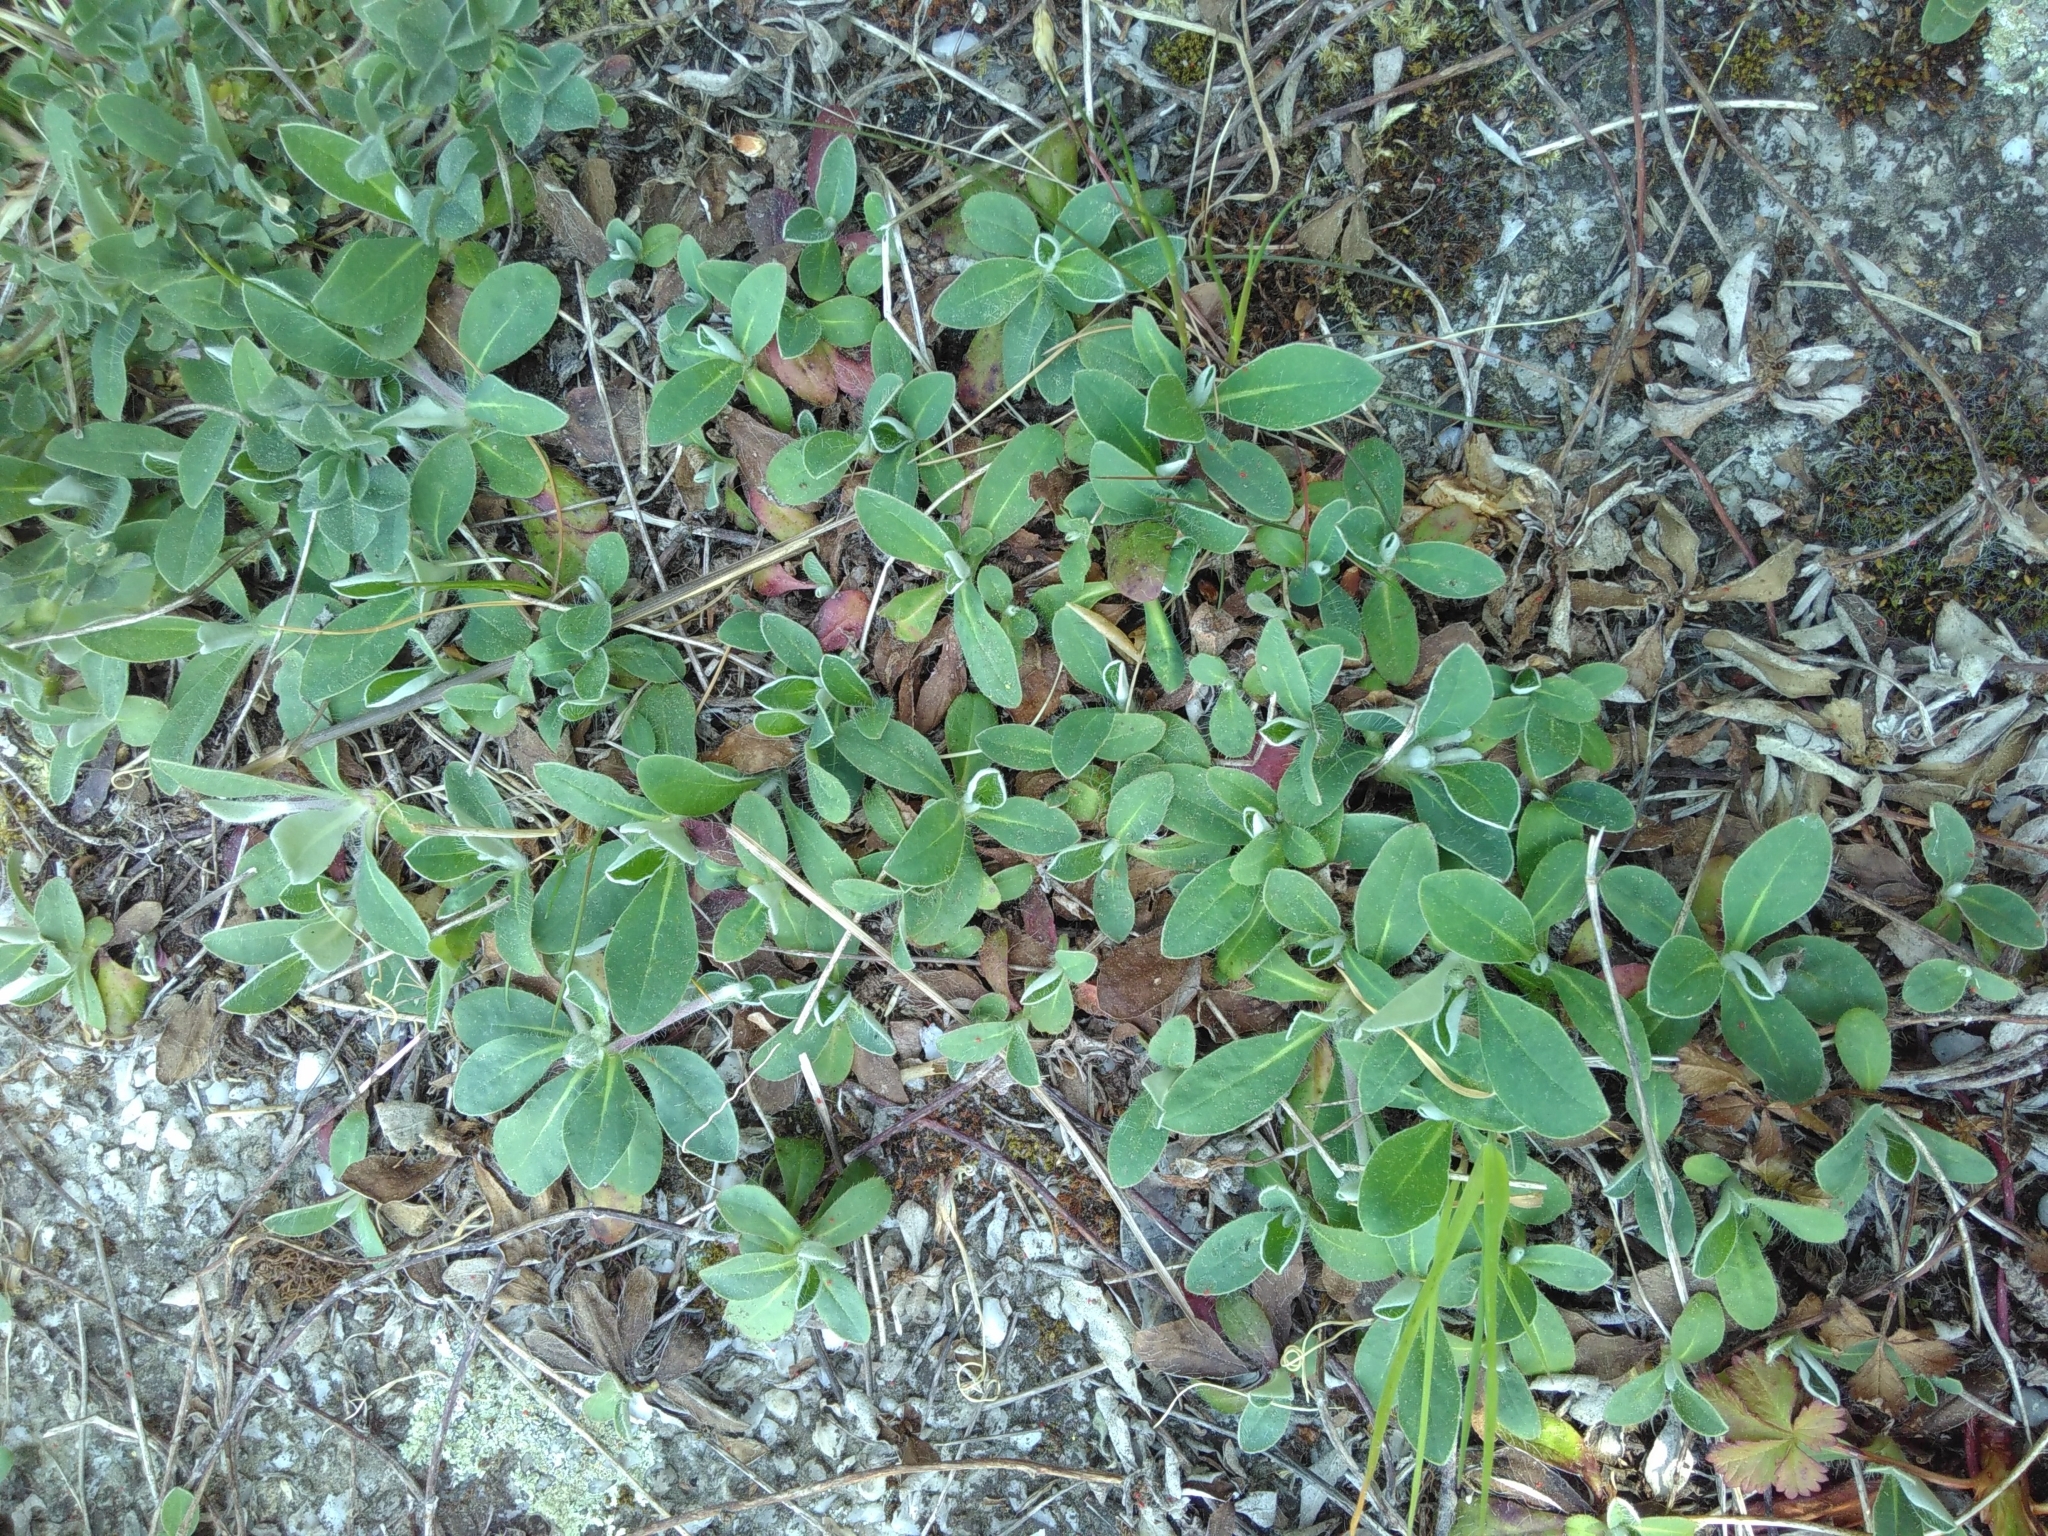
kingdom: Plantae
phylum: Tracheophyta
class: Magnoliopsida
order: Asterales
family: Asteraceae
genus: Pilosella
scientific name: Pilosella officinarum
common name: Mouse-ear hawkweed
